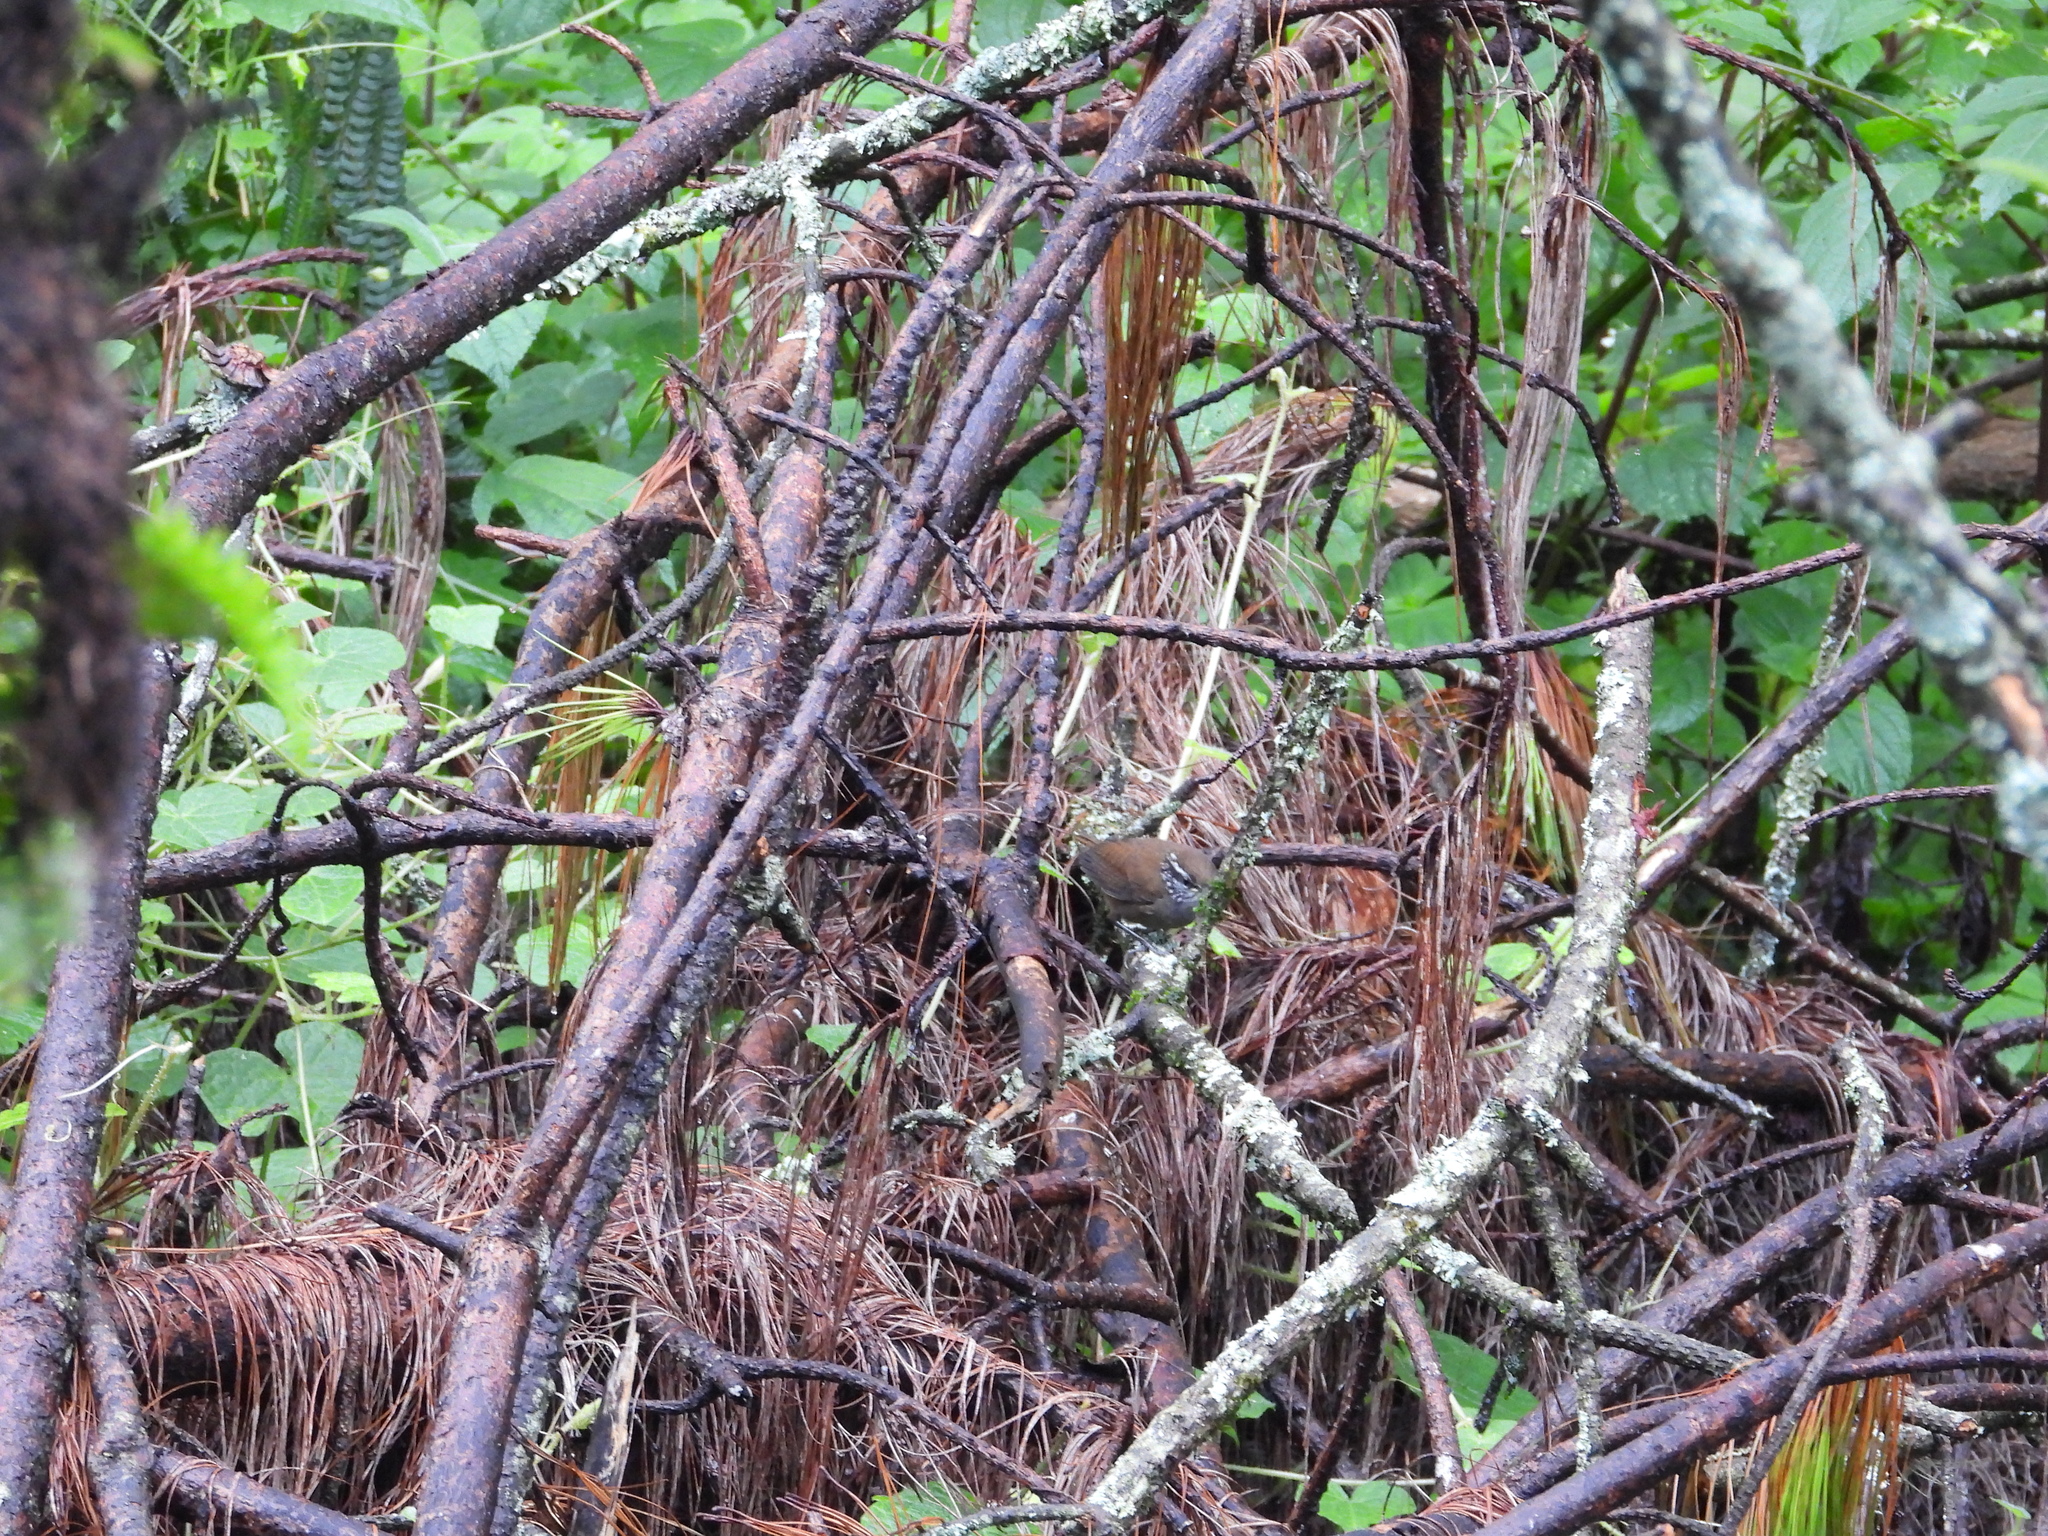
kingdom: Animalia
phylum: Chordata
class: Aves
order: Passeriformes
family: Troglodytidae
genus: Henicorhina
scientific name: Henicorhina leucophrys
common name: Gray-breasted wood-wren
